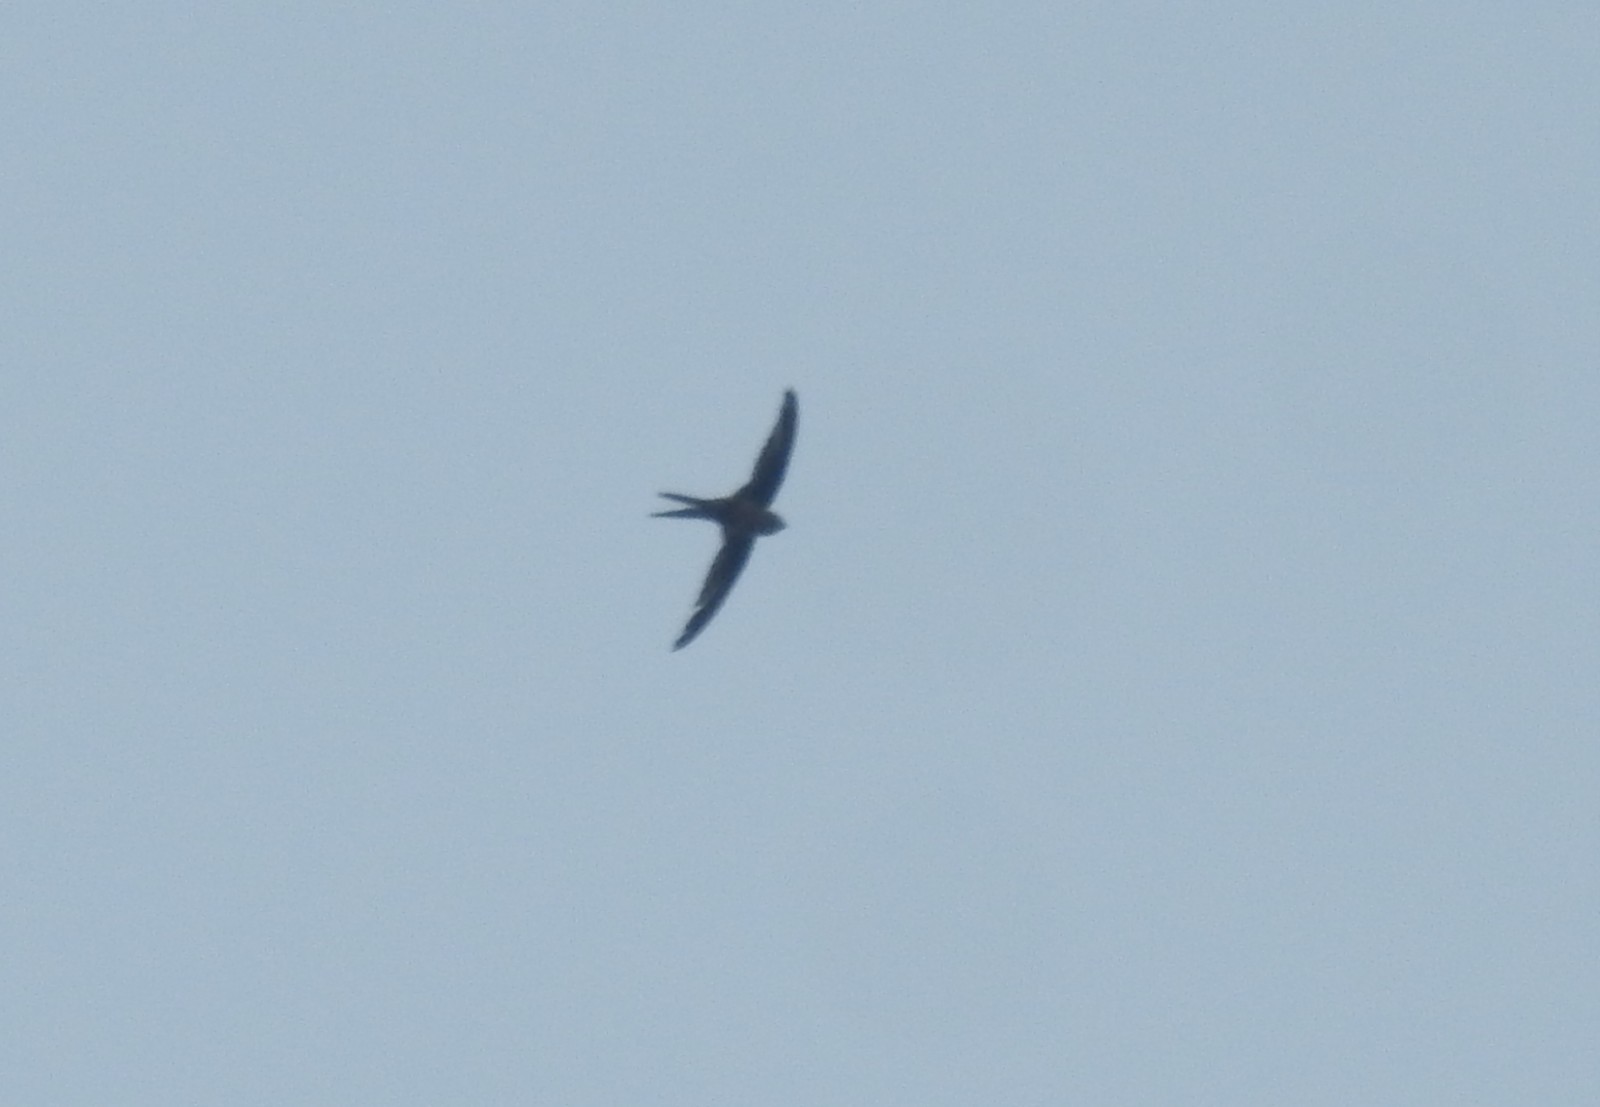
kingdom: Animalia
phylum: Chordata
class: Aves
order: Apodiformes
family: Apodidae
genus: Cypsiurus
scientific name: Cypsiurus balasiensis
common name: Asian palm swift
